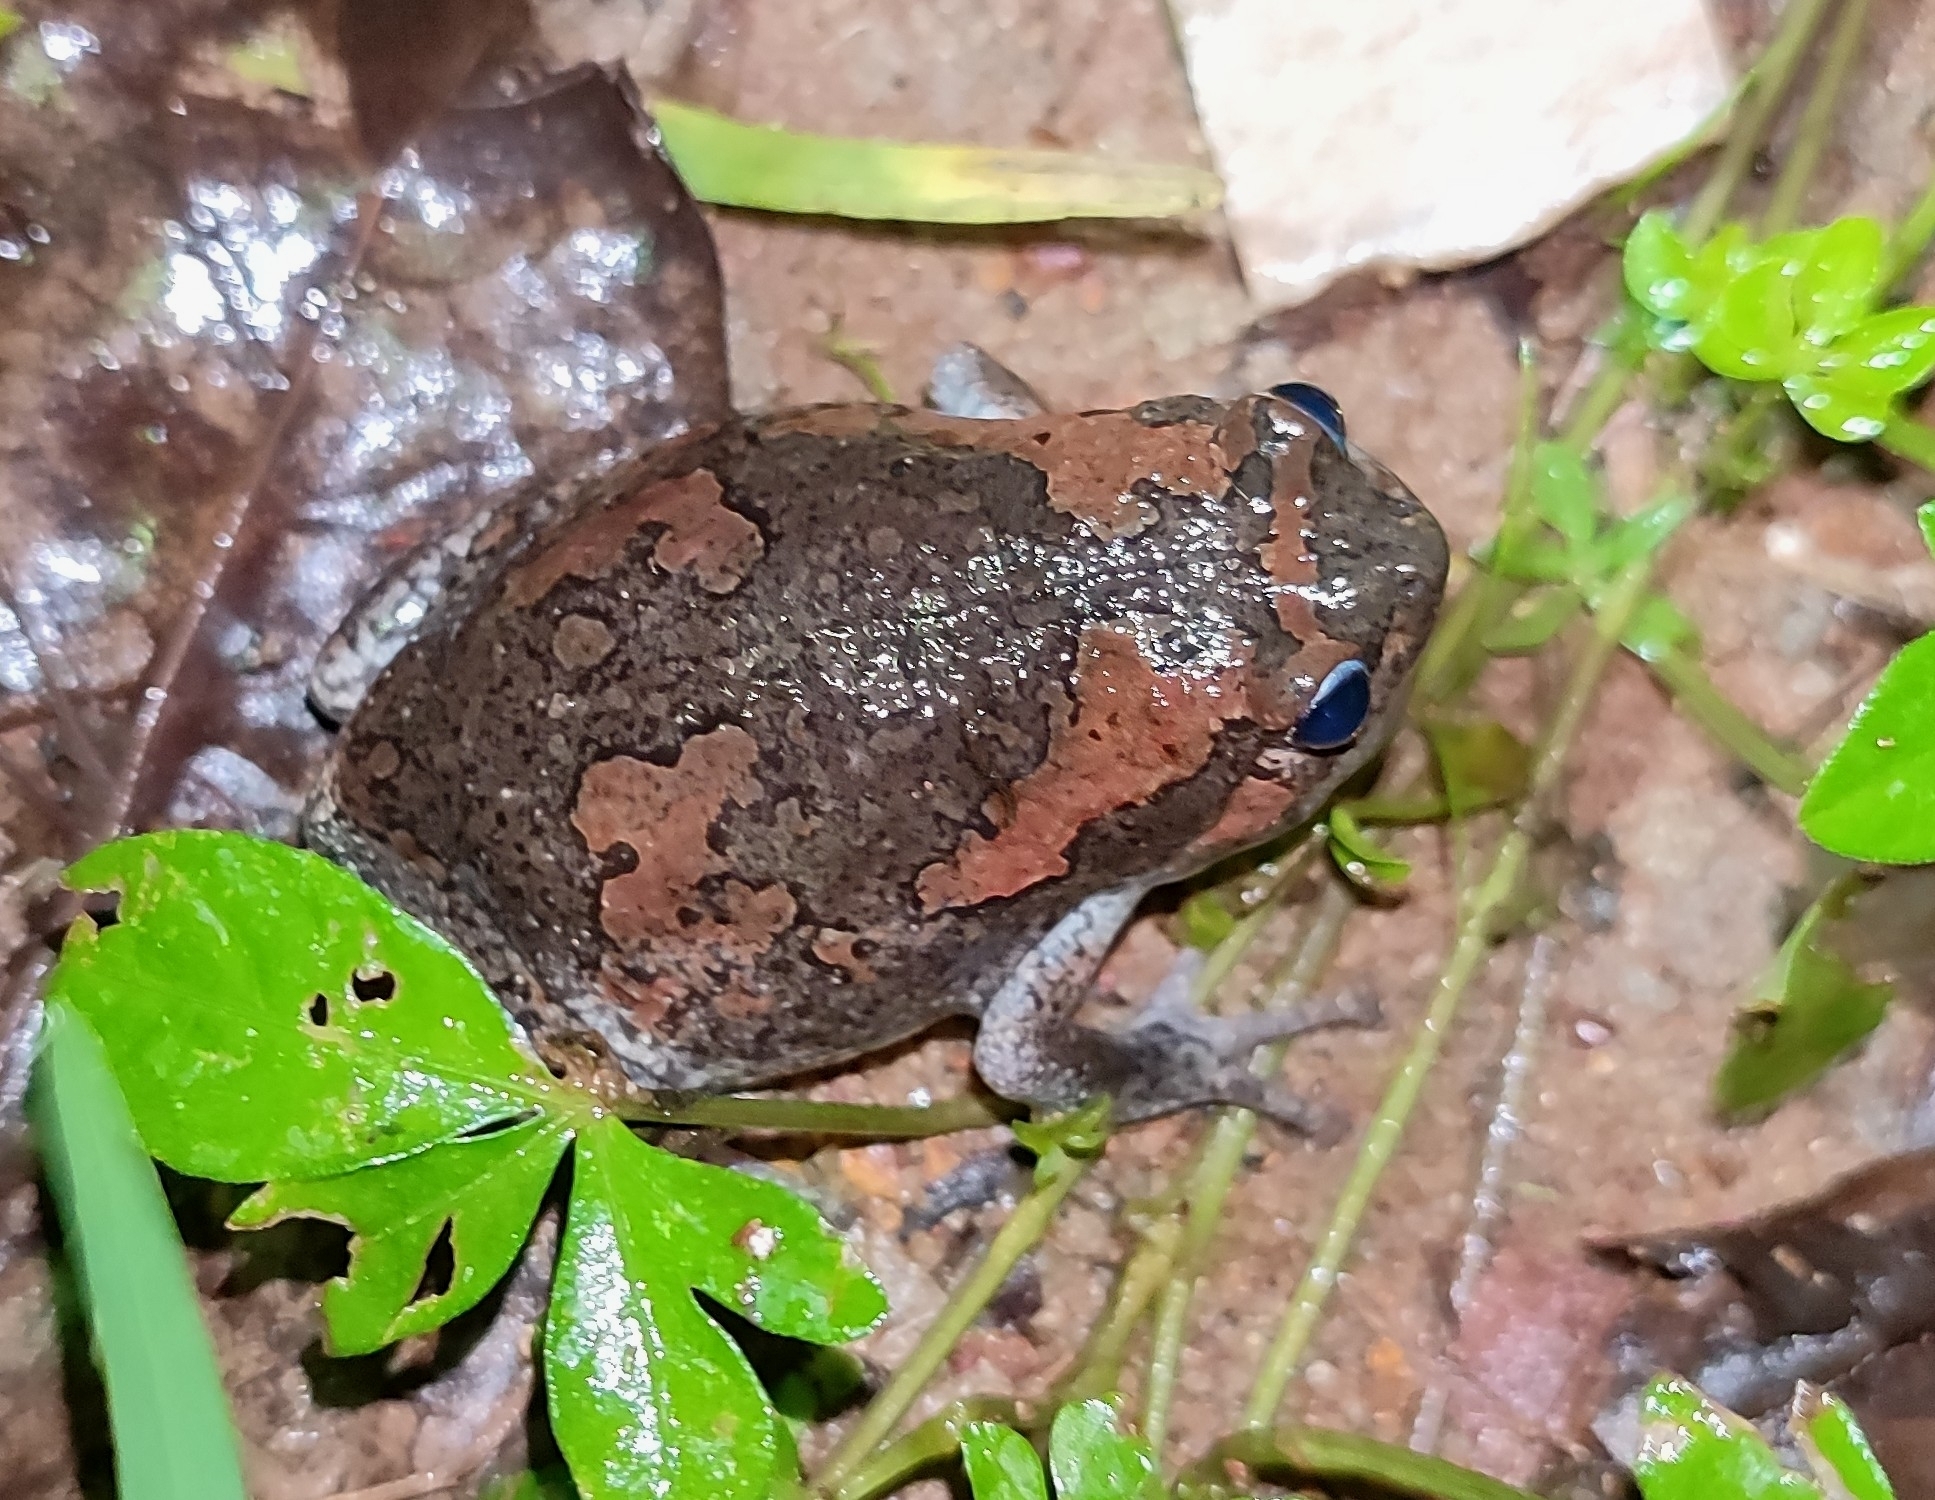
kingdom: Animalia
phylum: Chordata
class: Amphibia
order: Anura
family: Microhylidae
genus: Uperodon
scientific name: Uperodon taprobanicus
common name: Ceylon kaloula
